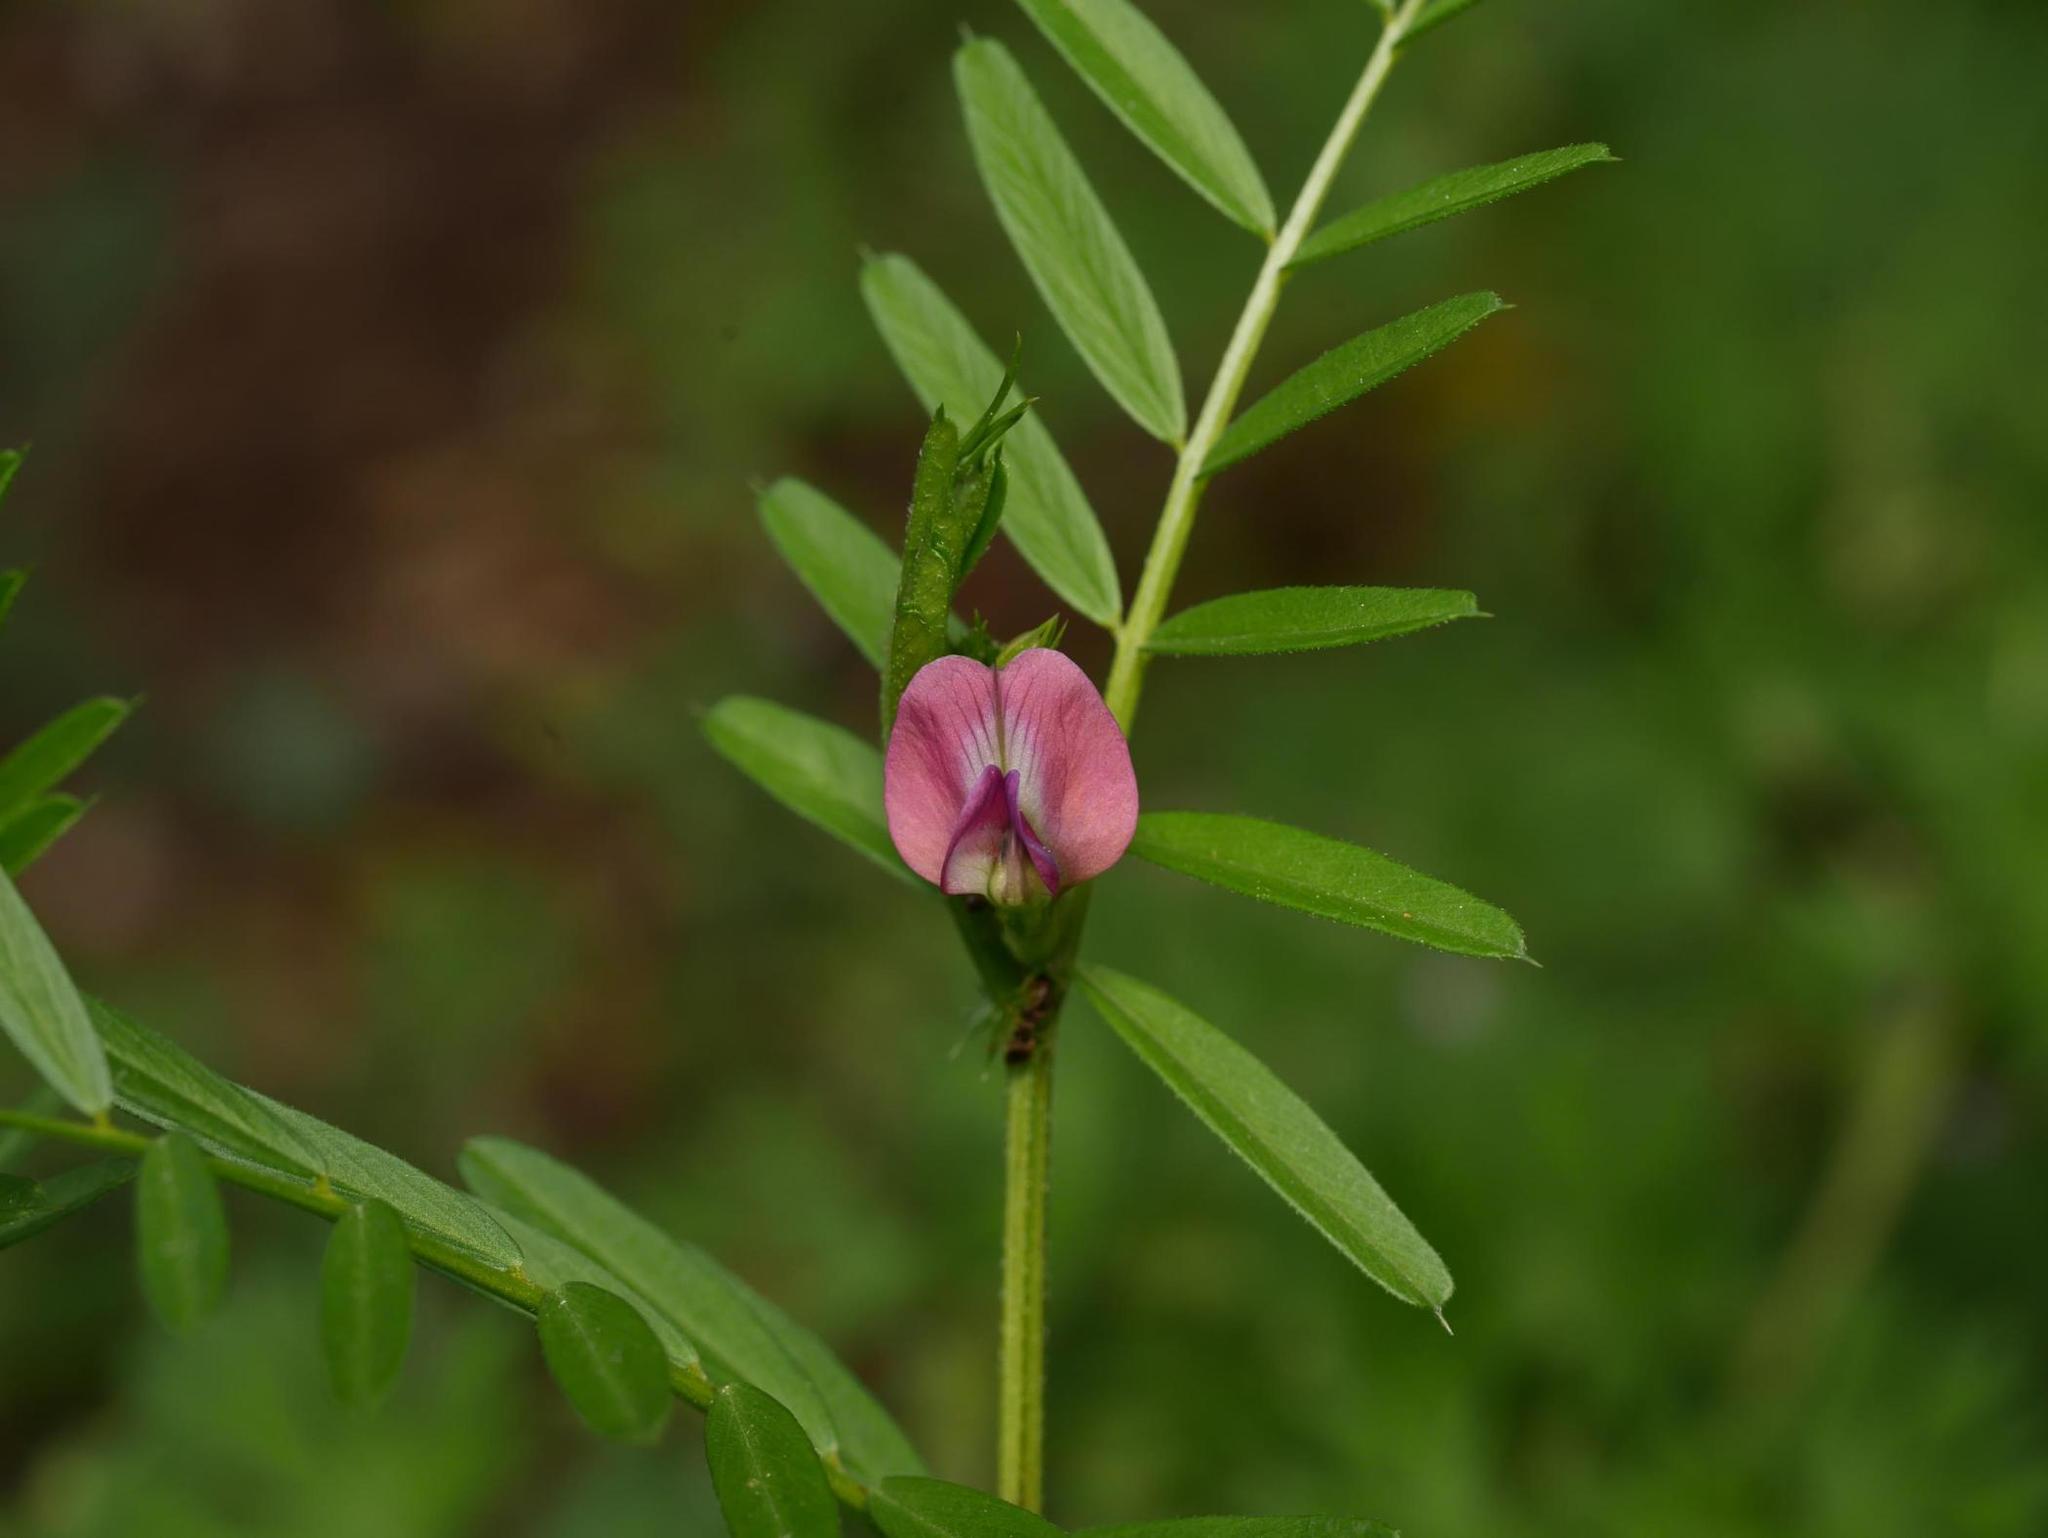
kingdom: Plantae
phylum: Tracheophyta
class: Magnoliopsida
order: Fabales
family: Fabaceae
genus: Vicia
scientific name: Vicia sativa
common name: Garden vetch
